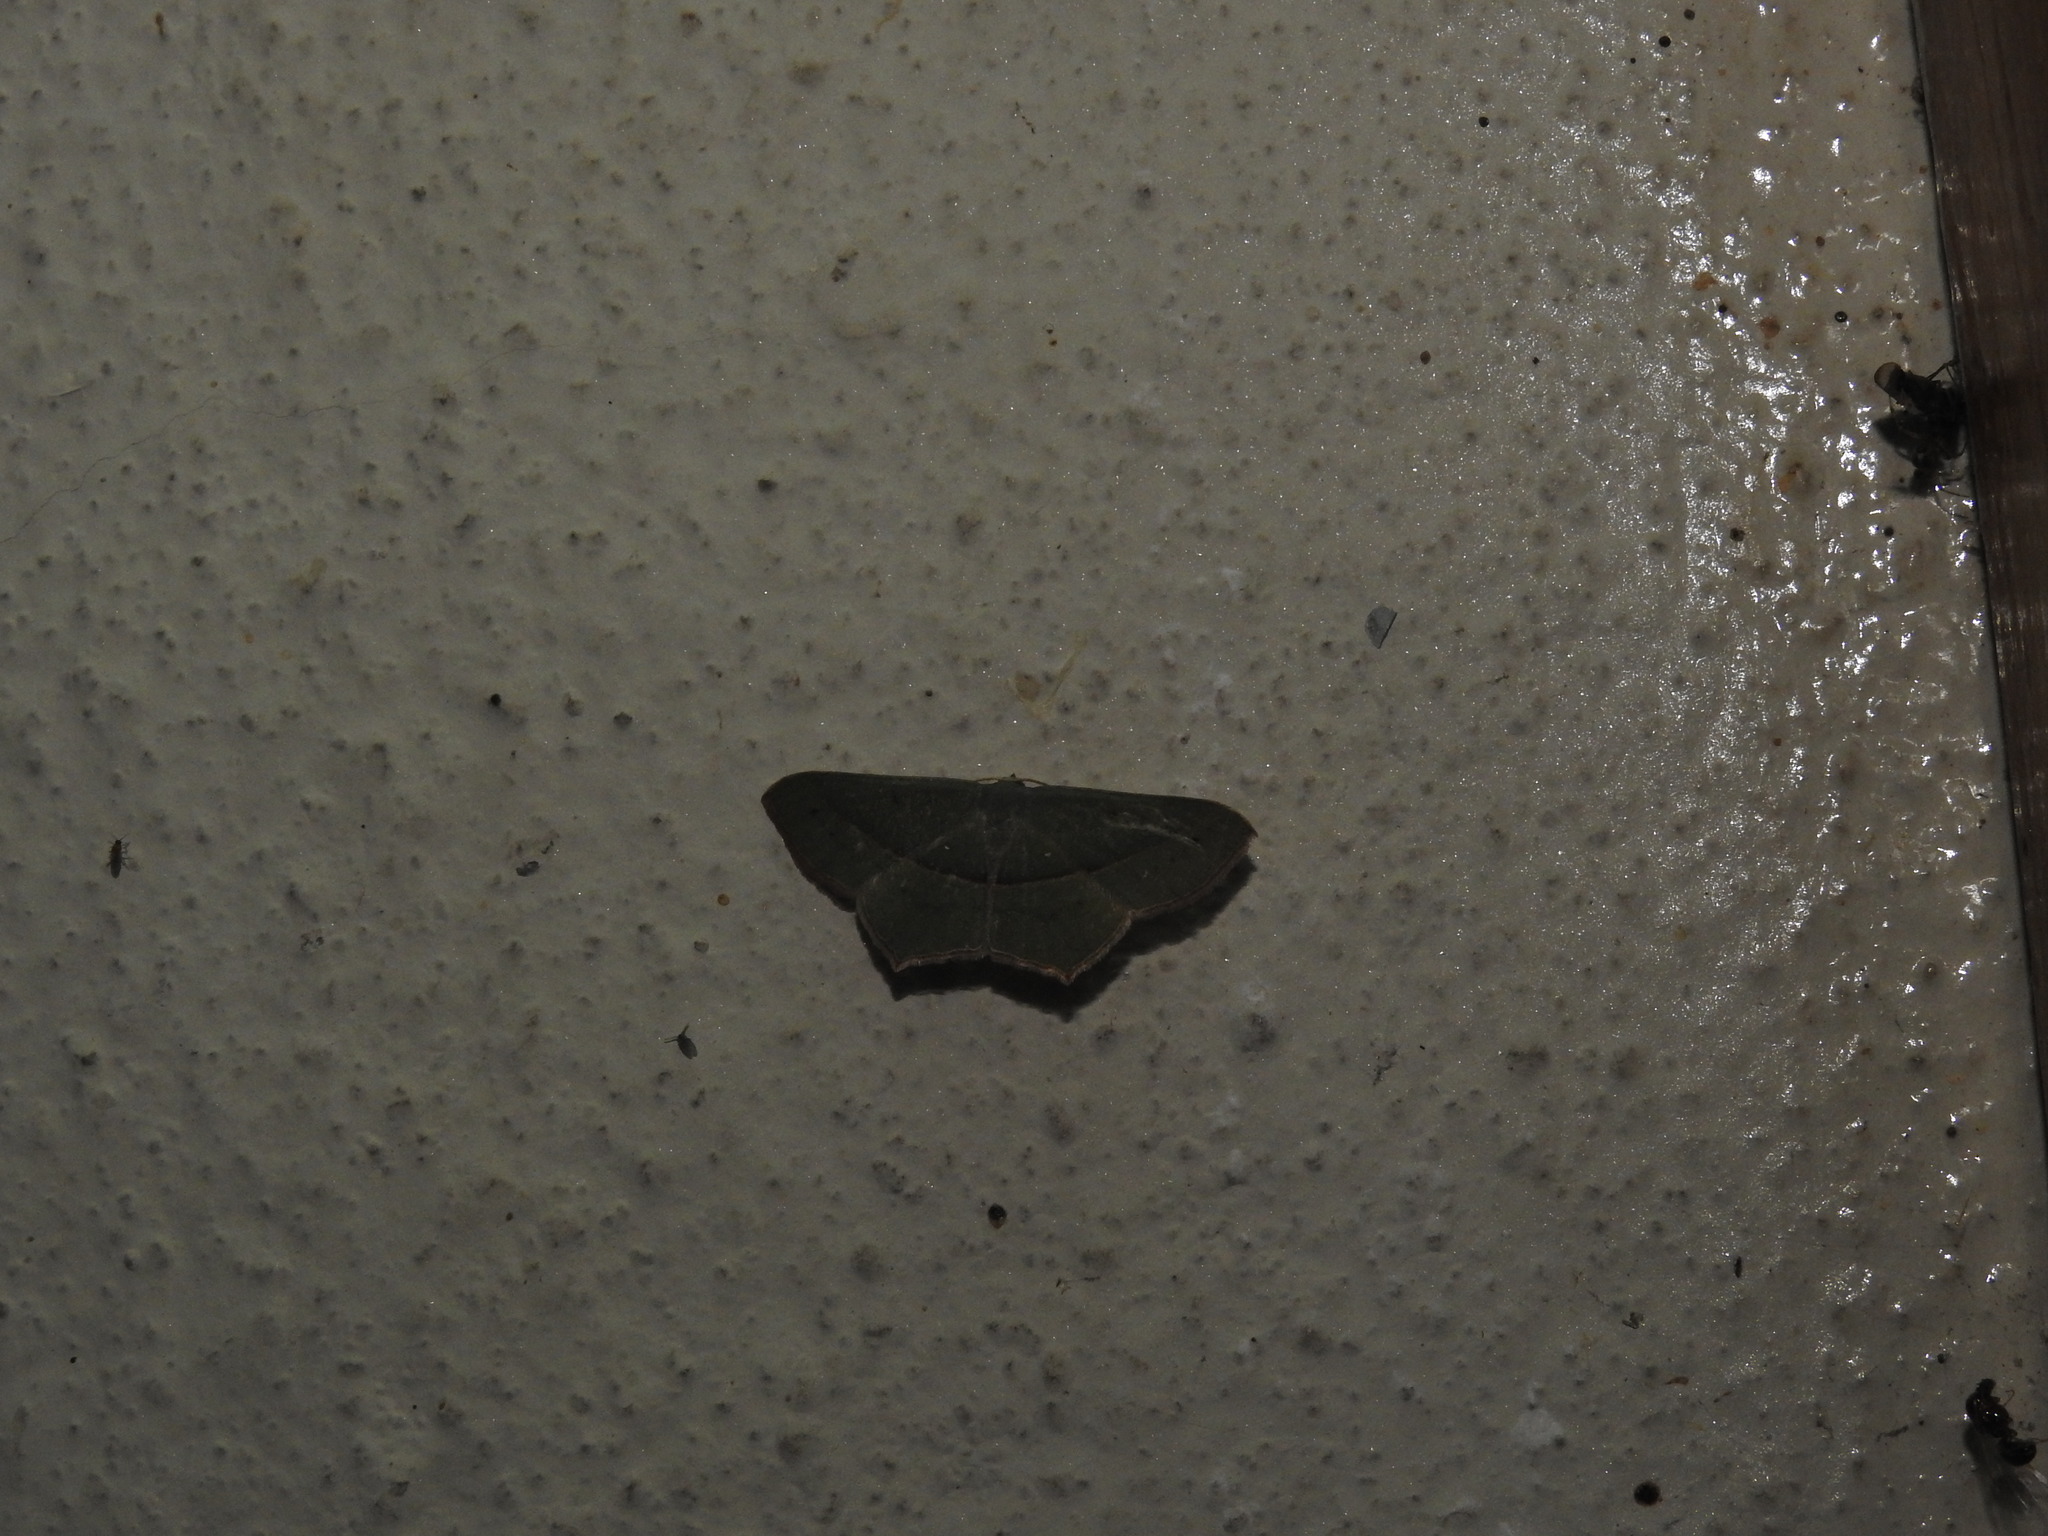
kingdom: Animalia
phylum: Arthropoda
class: Insecta
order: Lepidoptera
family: Geometridae
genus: Traminda
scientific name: Traminda mundissima
